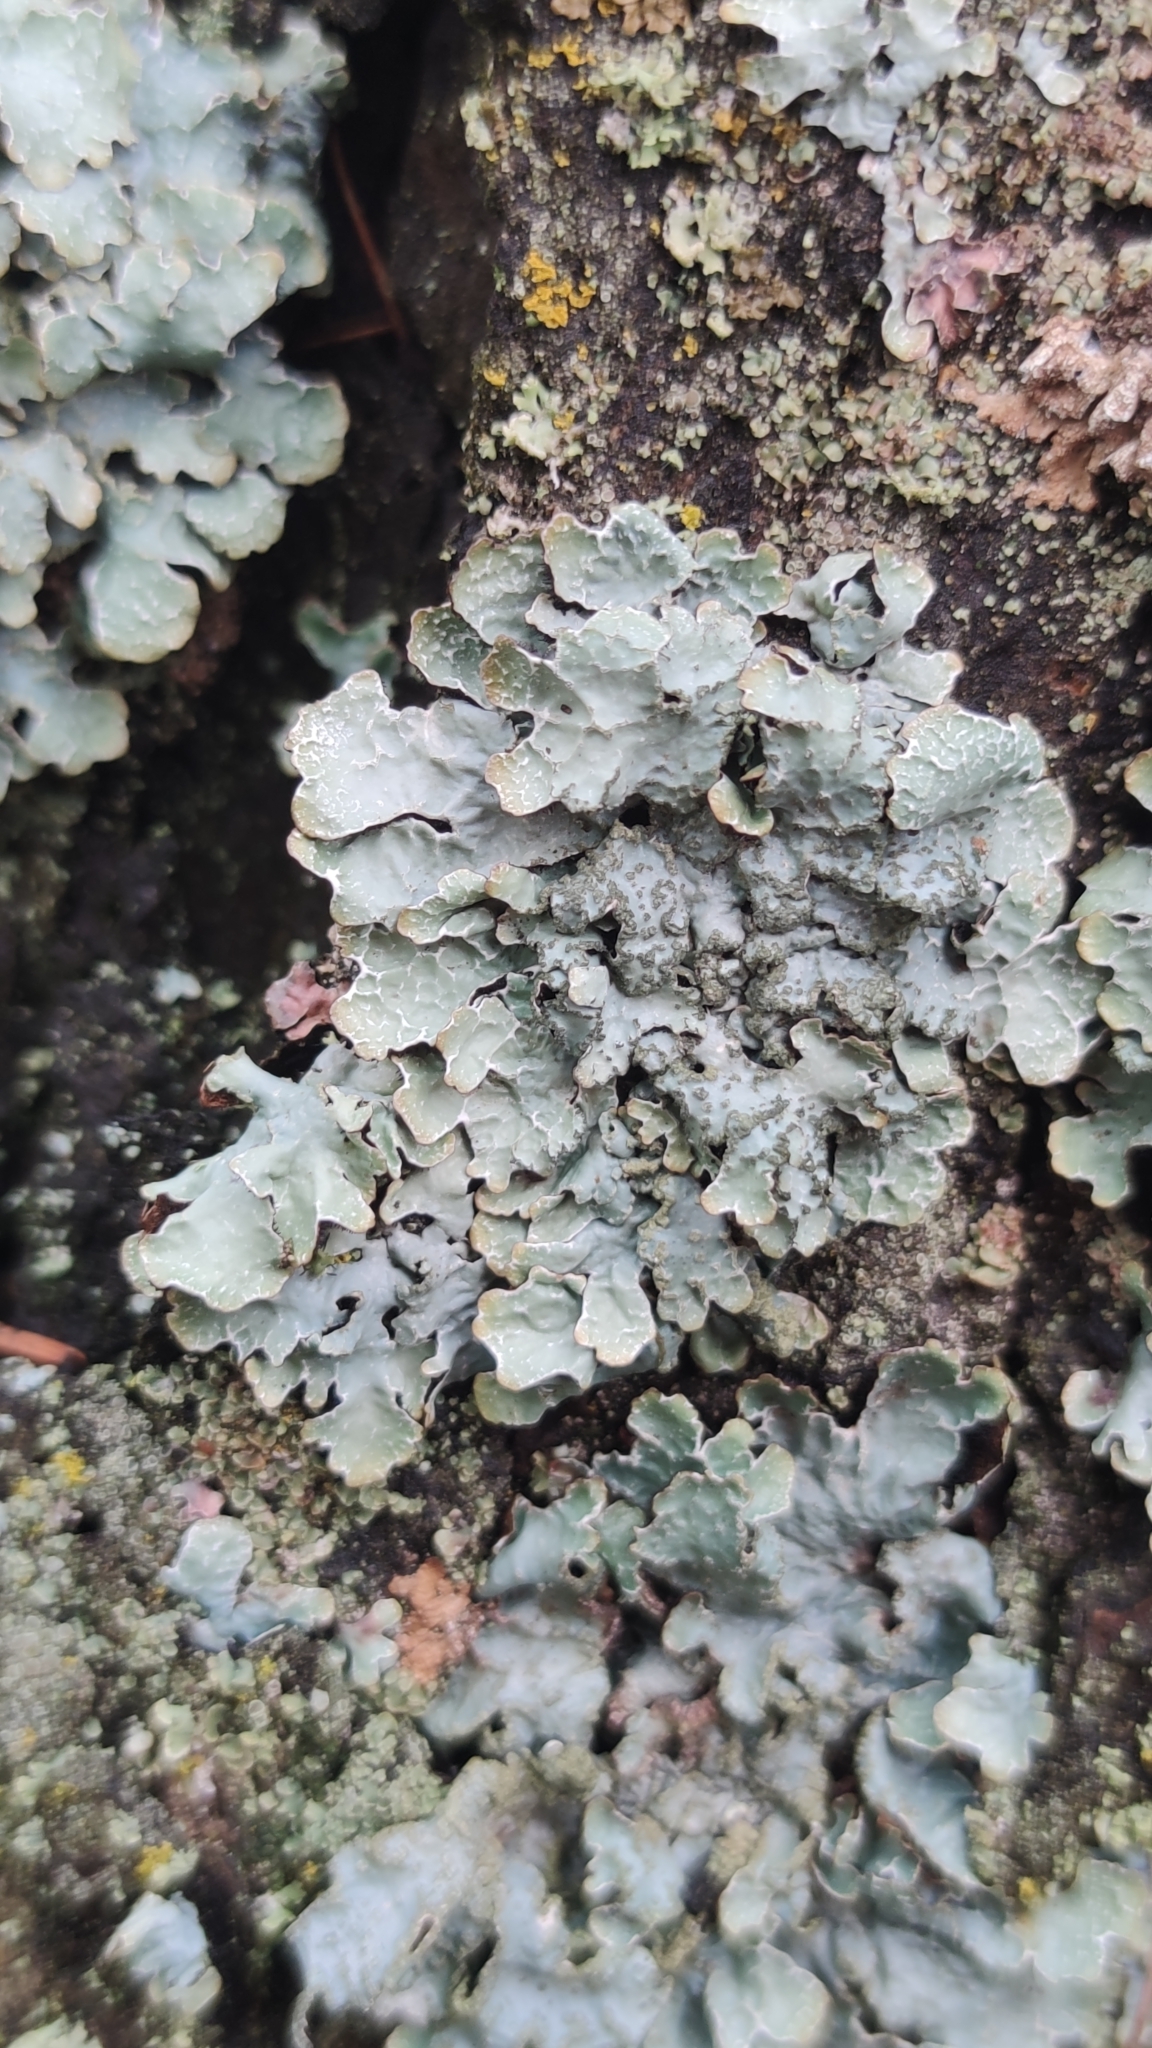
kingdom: Fungi
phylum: Ascomycota
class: Lecanoromycetes
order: Lecanorales
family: Parmeliaceae
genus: Parmelia
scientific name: Parmelia sulcata
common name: Netted shield lichen
